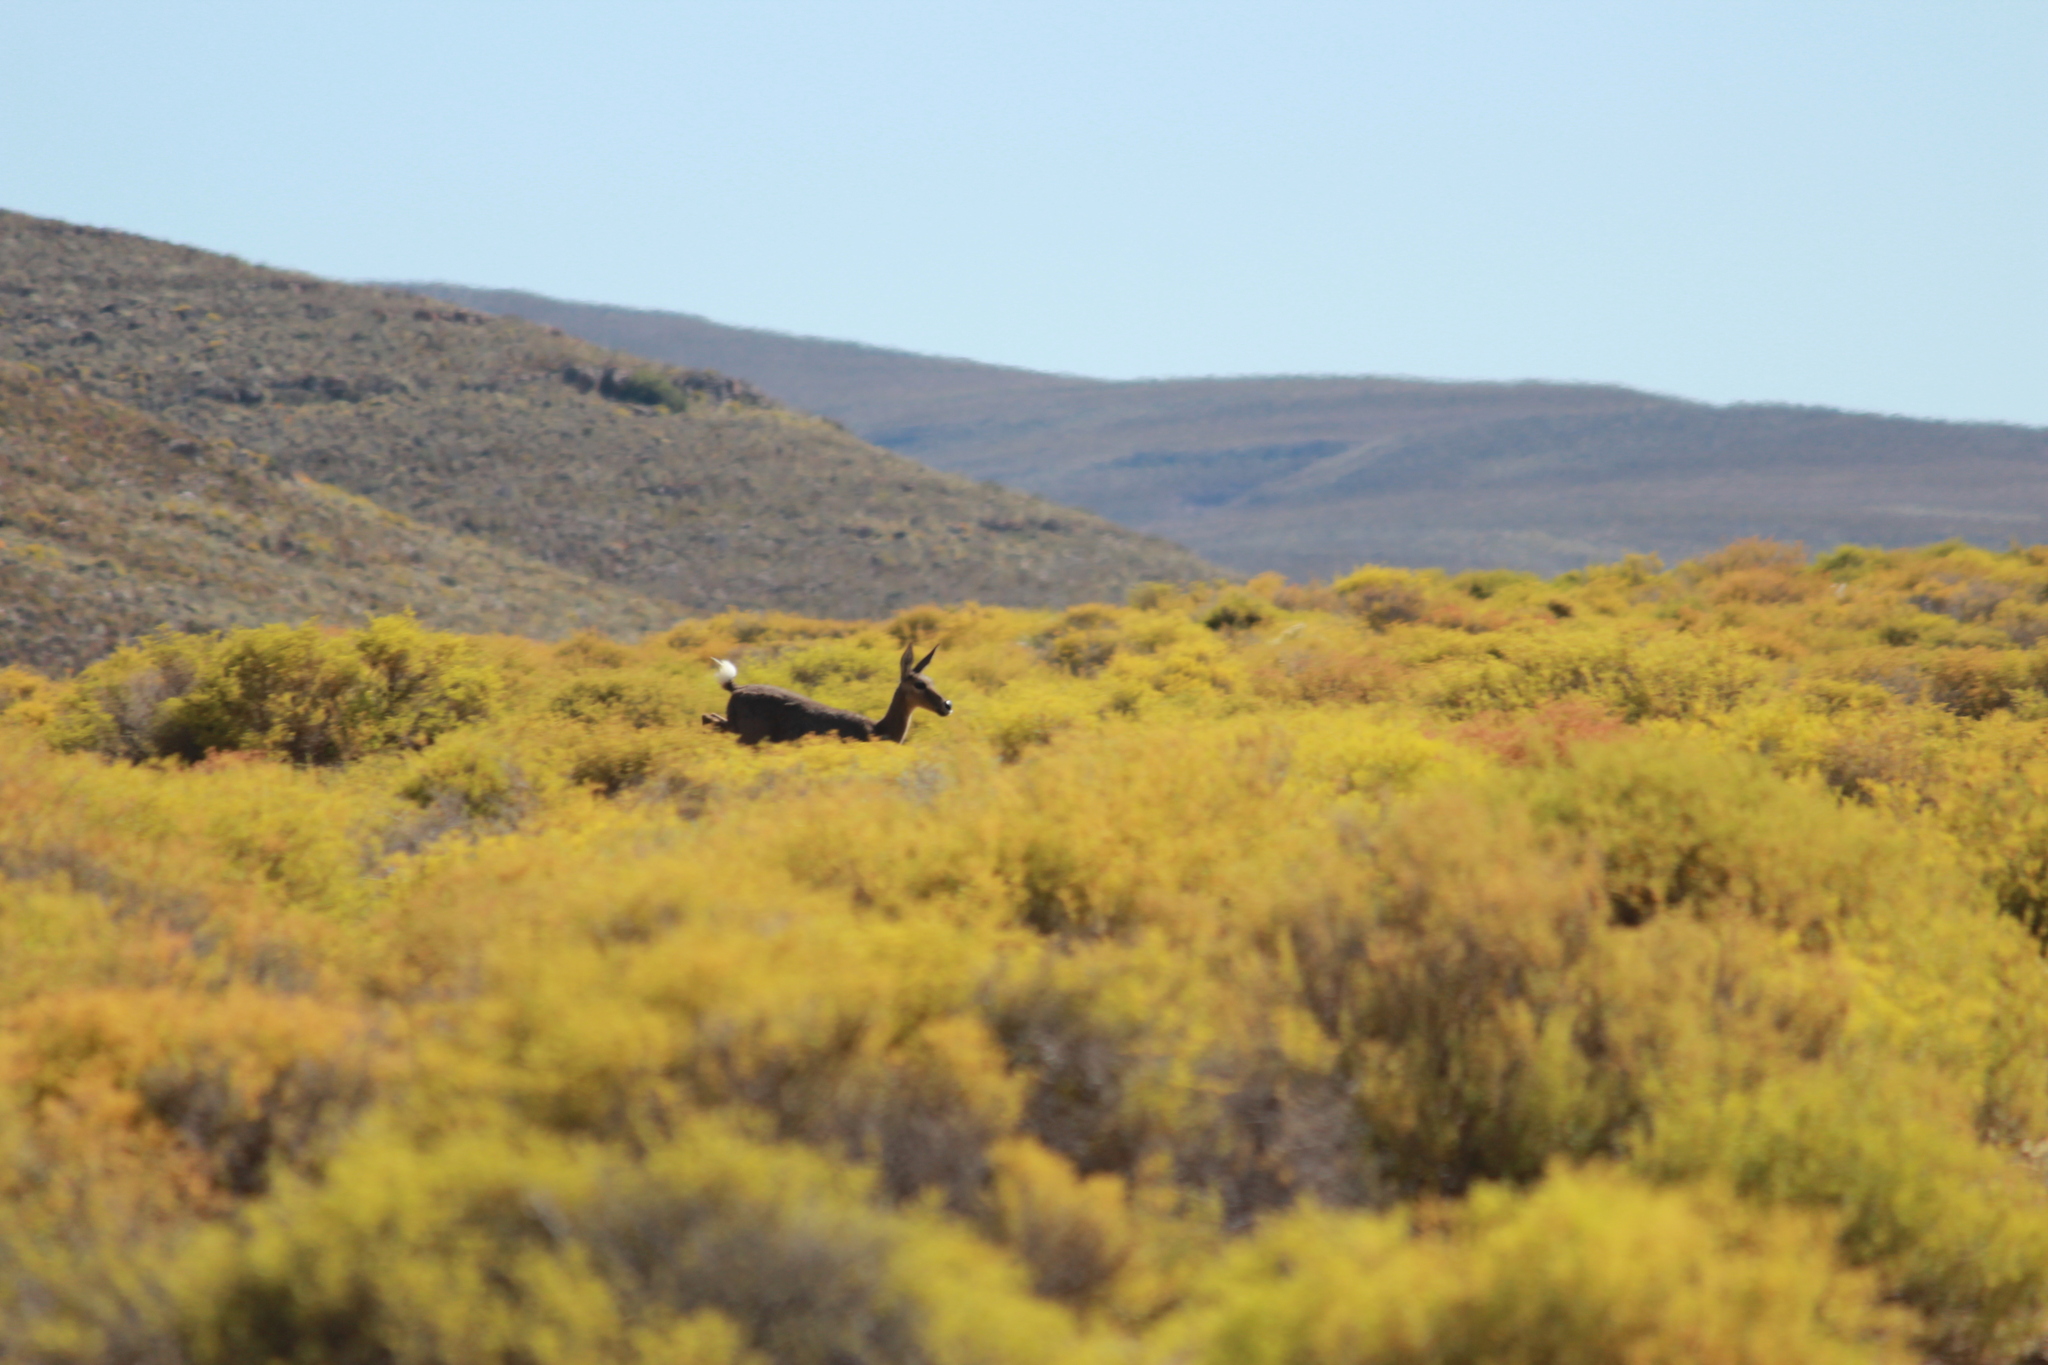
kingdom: Animalia
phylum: Chordata
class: Mammalia
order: Artiodactyla
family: Bovidae
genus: Pelea
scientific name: Pelea capreolus
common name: Common rhebok
